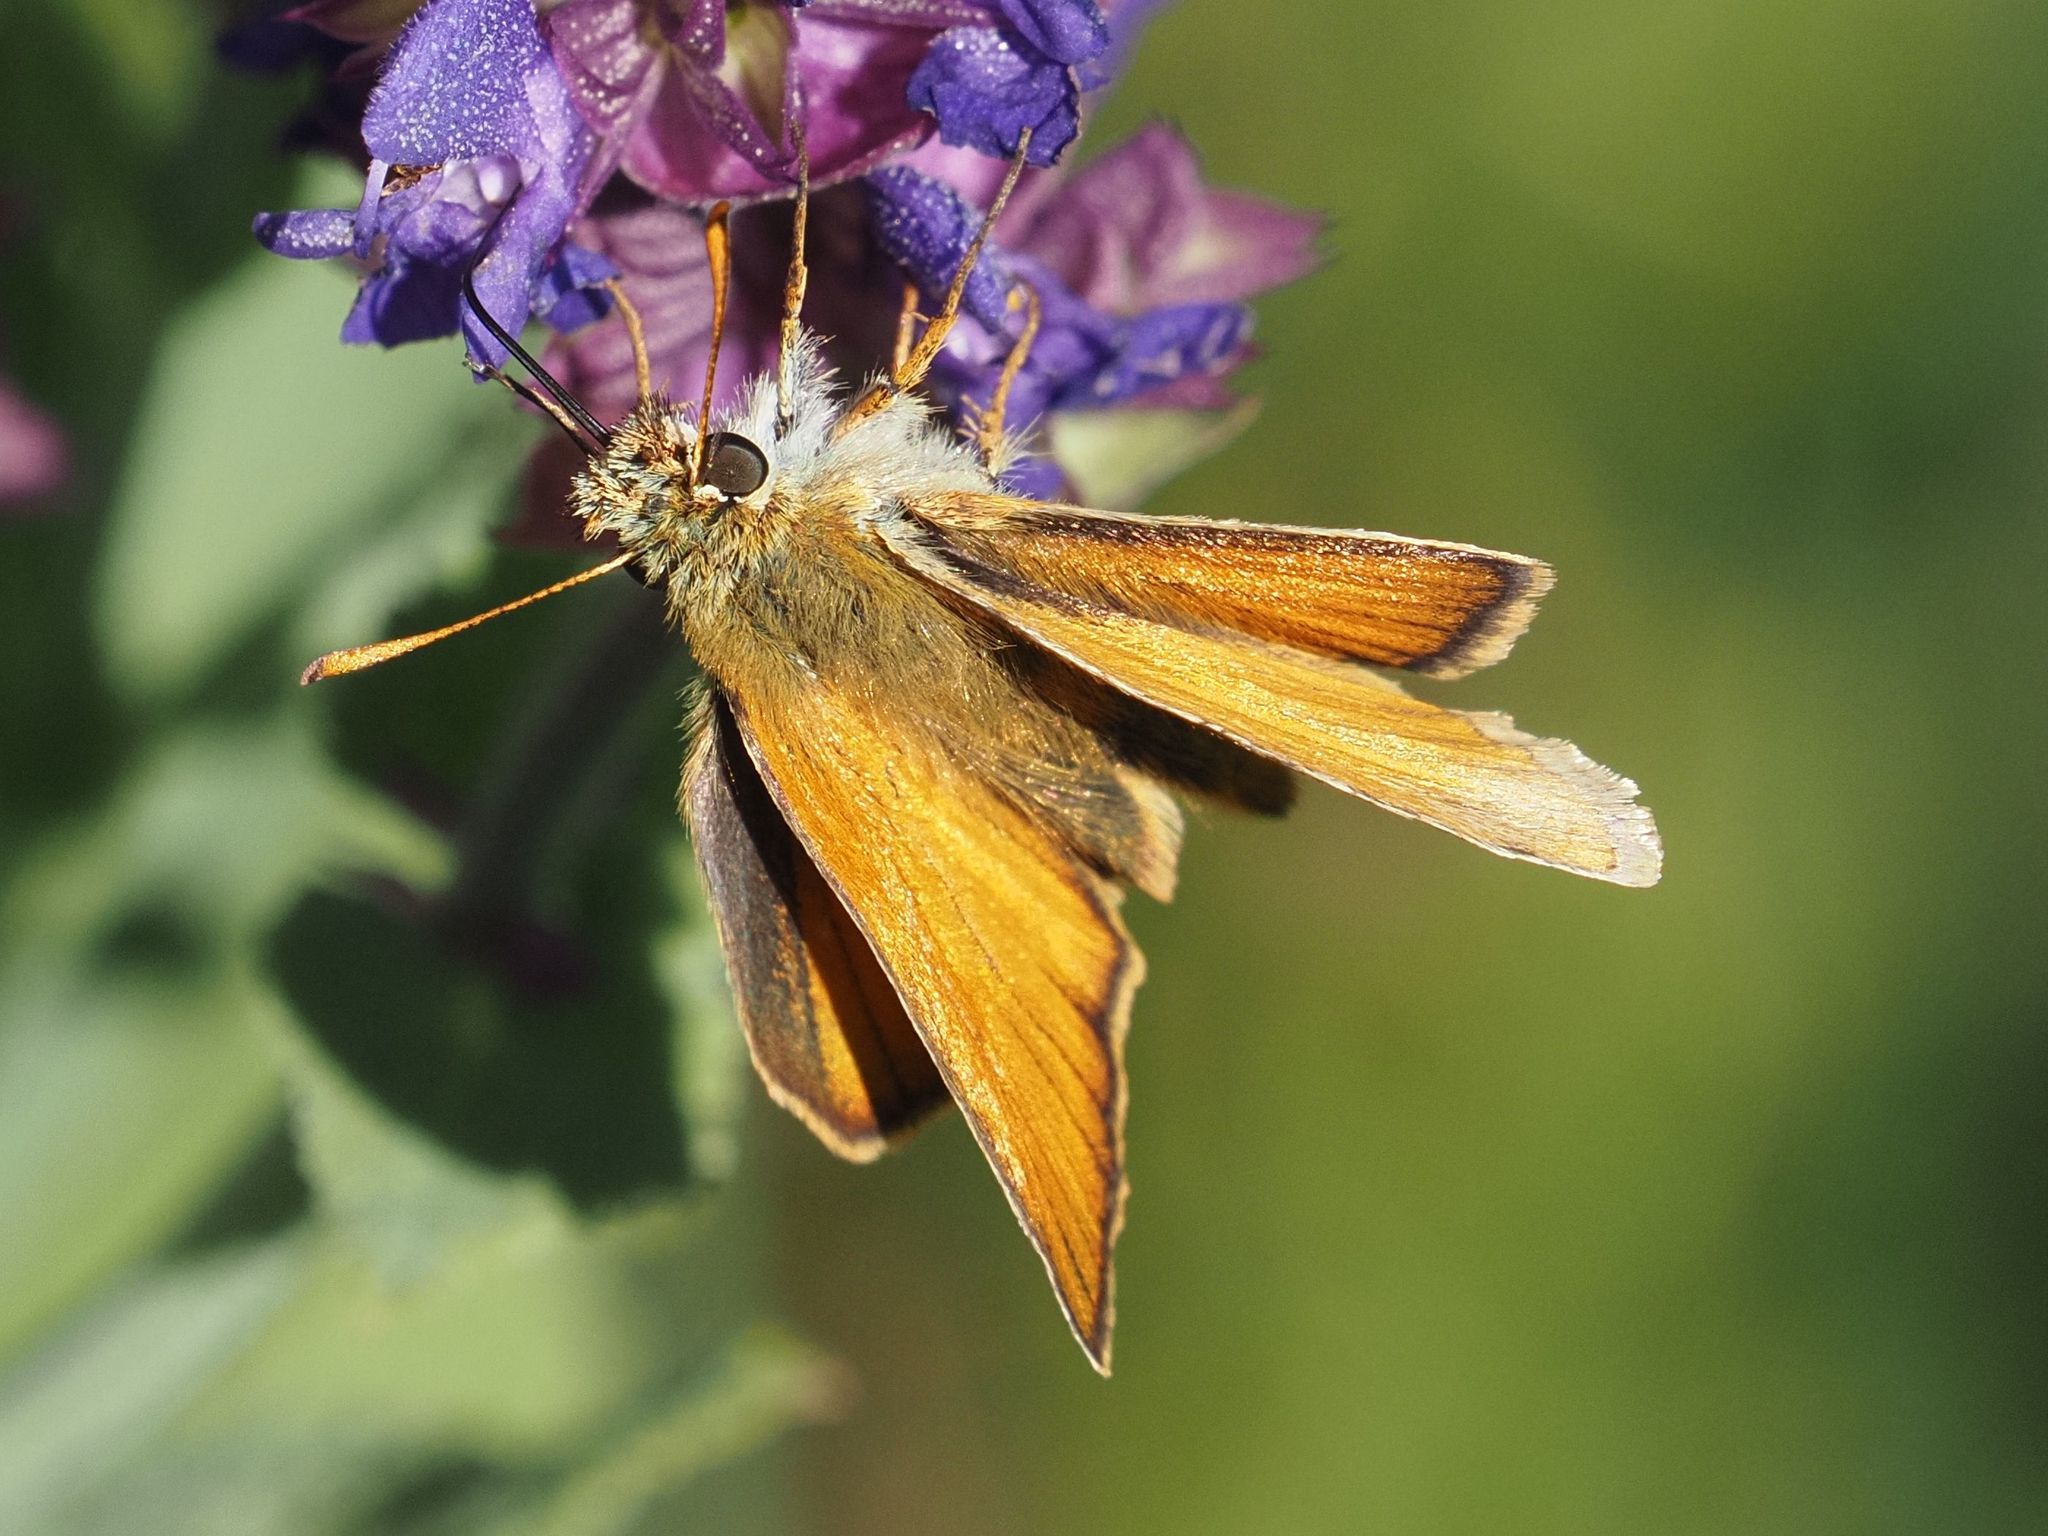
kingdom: Animalia
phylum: Arthropoda
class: Insecta
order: Lepidoptera
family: Hesperiidae
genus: Thymelicus
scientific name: Thymelicus sylvestris
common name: Small skipper
